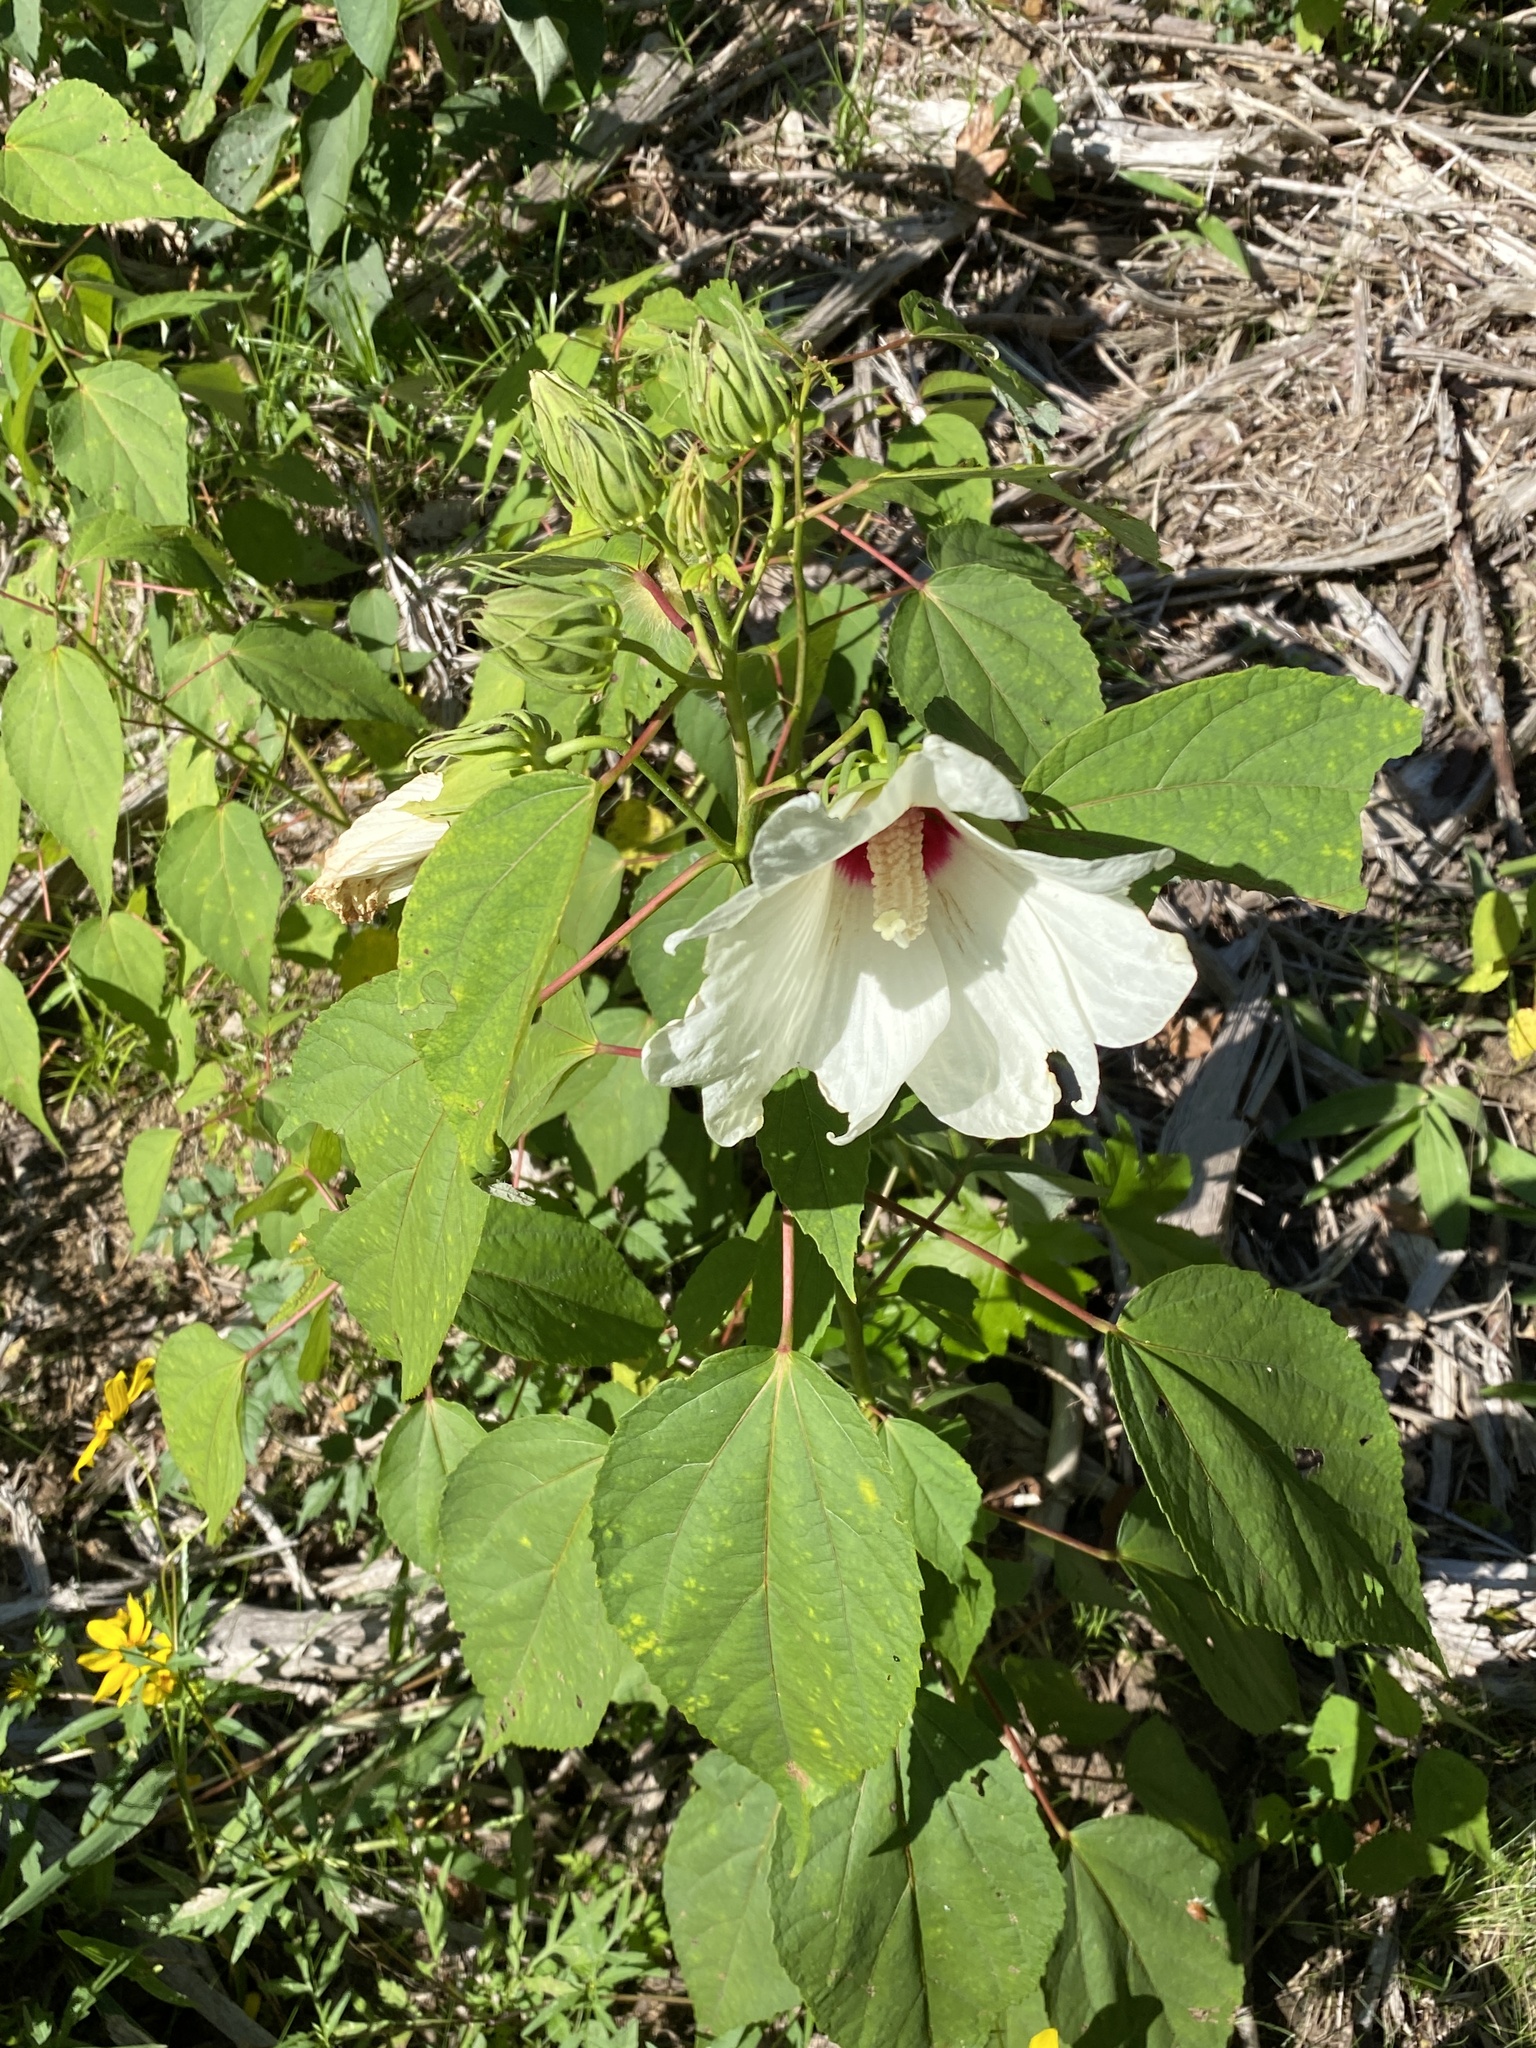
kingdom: Plantae
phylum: Tracheophyta
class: Magnoliopsida
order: Malvales
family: Malvaceae
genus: Hibiscus
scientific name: Hibiscus moscheutos
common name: Common rose-mallow
